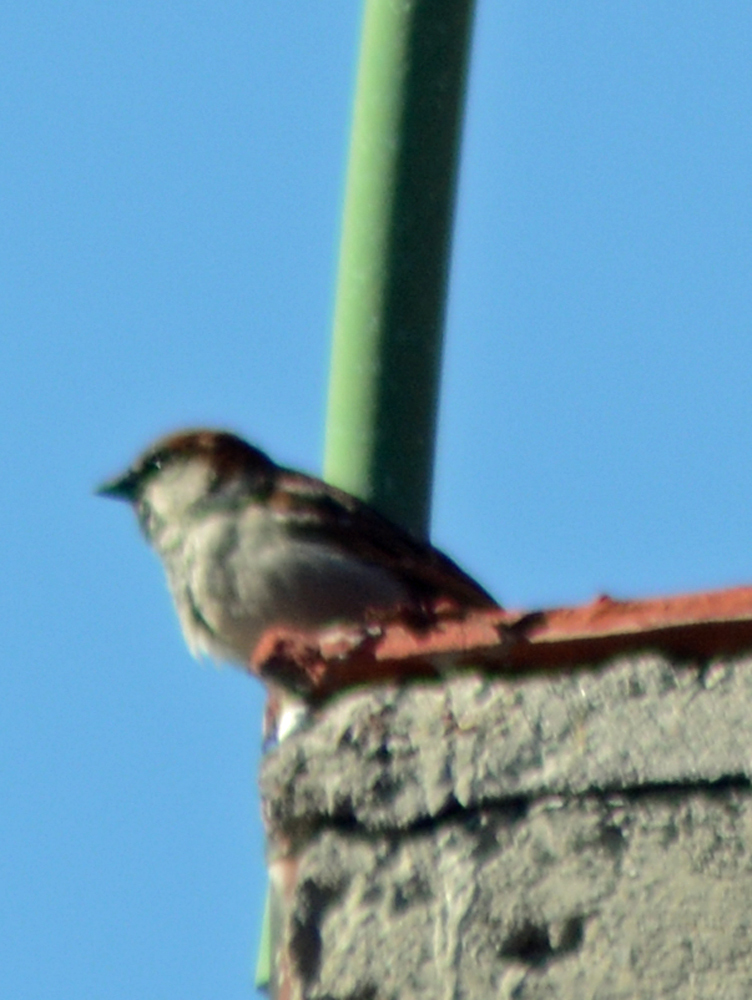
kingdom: Animalia
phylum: Chordata
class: Aves
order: Passeriformes
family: Passeridae
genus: Passer
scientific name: Passer domesticus
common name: House sparrow
